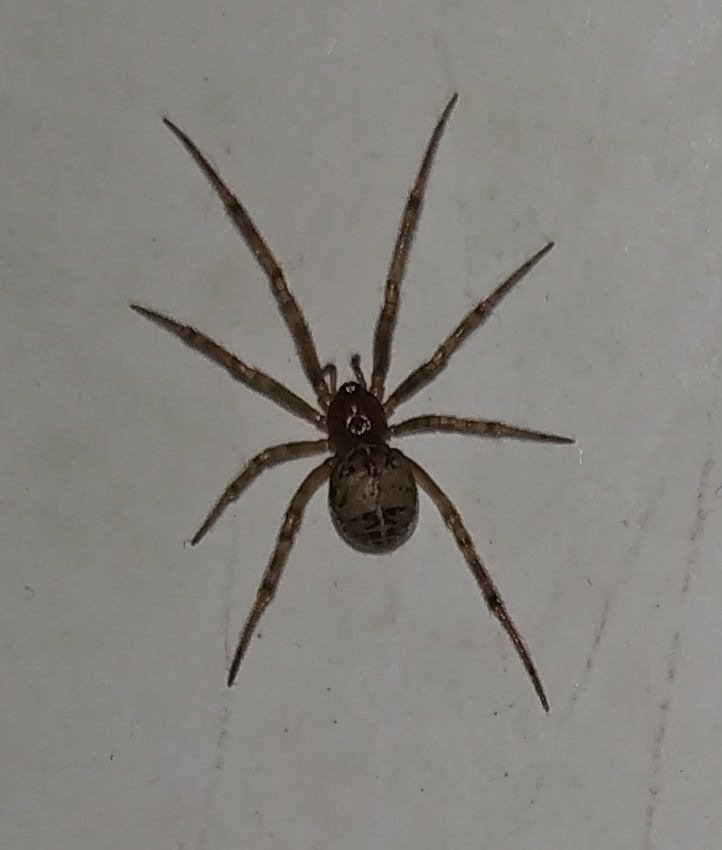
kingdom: Animalia
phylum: Arthropoda
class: Arachnida
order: Araneae
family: Theridiidae
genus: Steatoda
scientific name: Steatoda castanea
